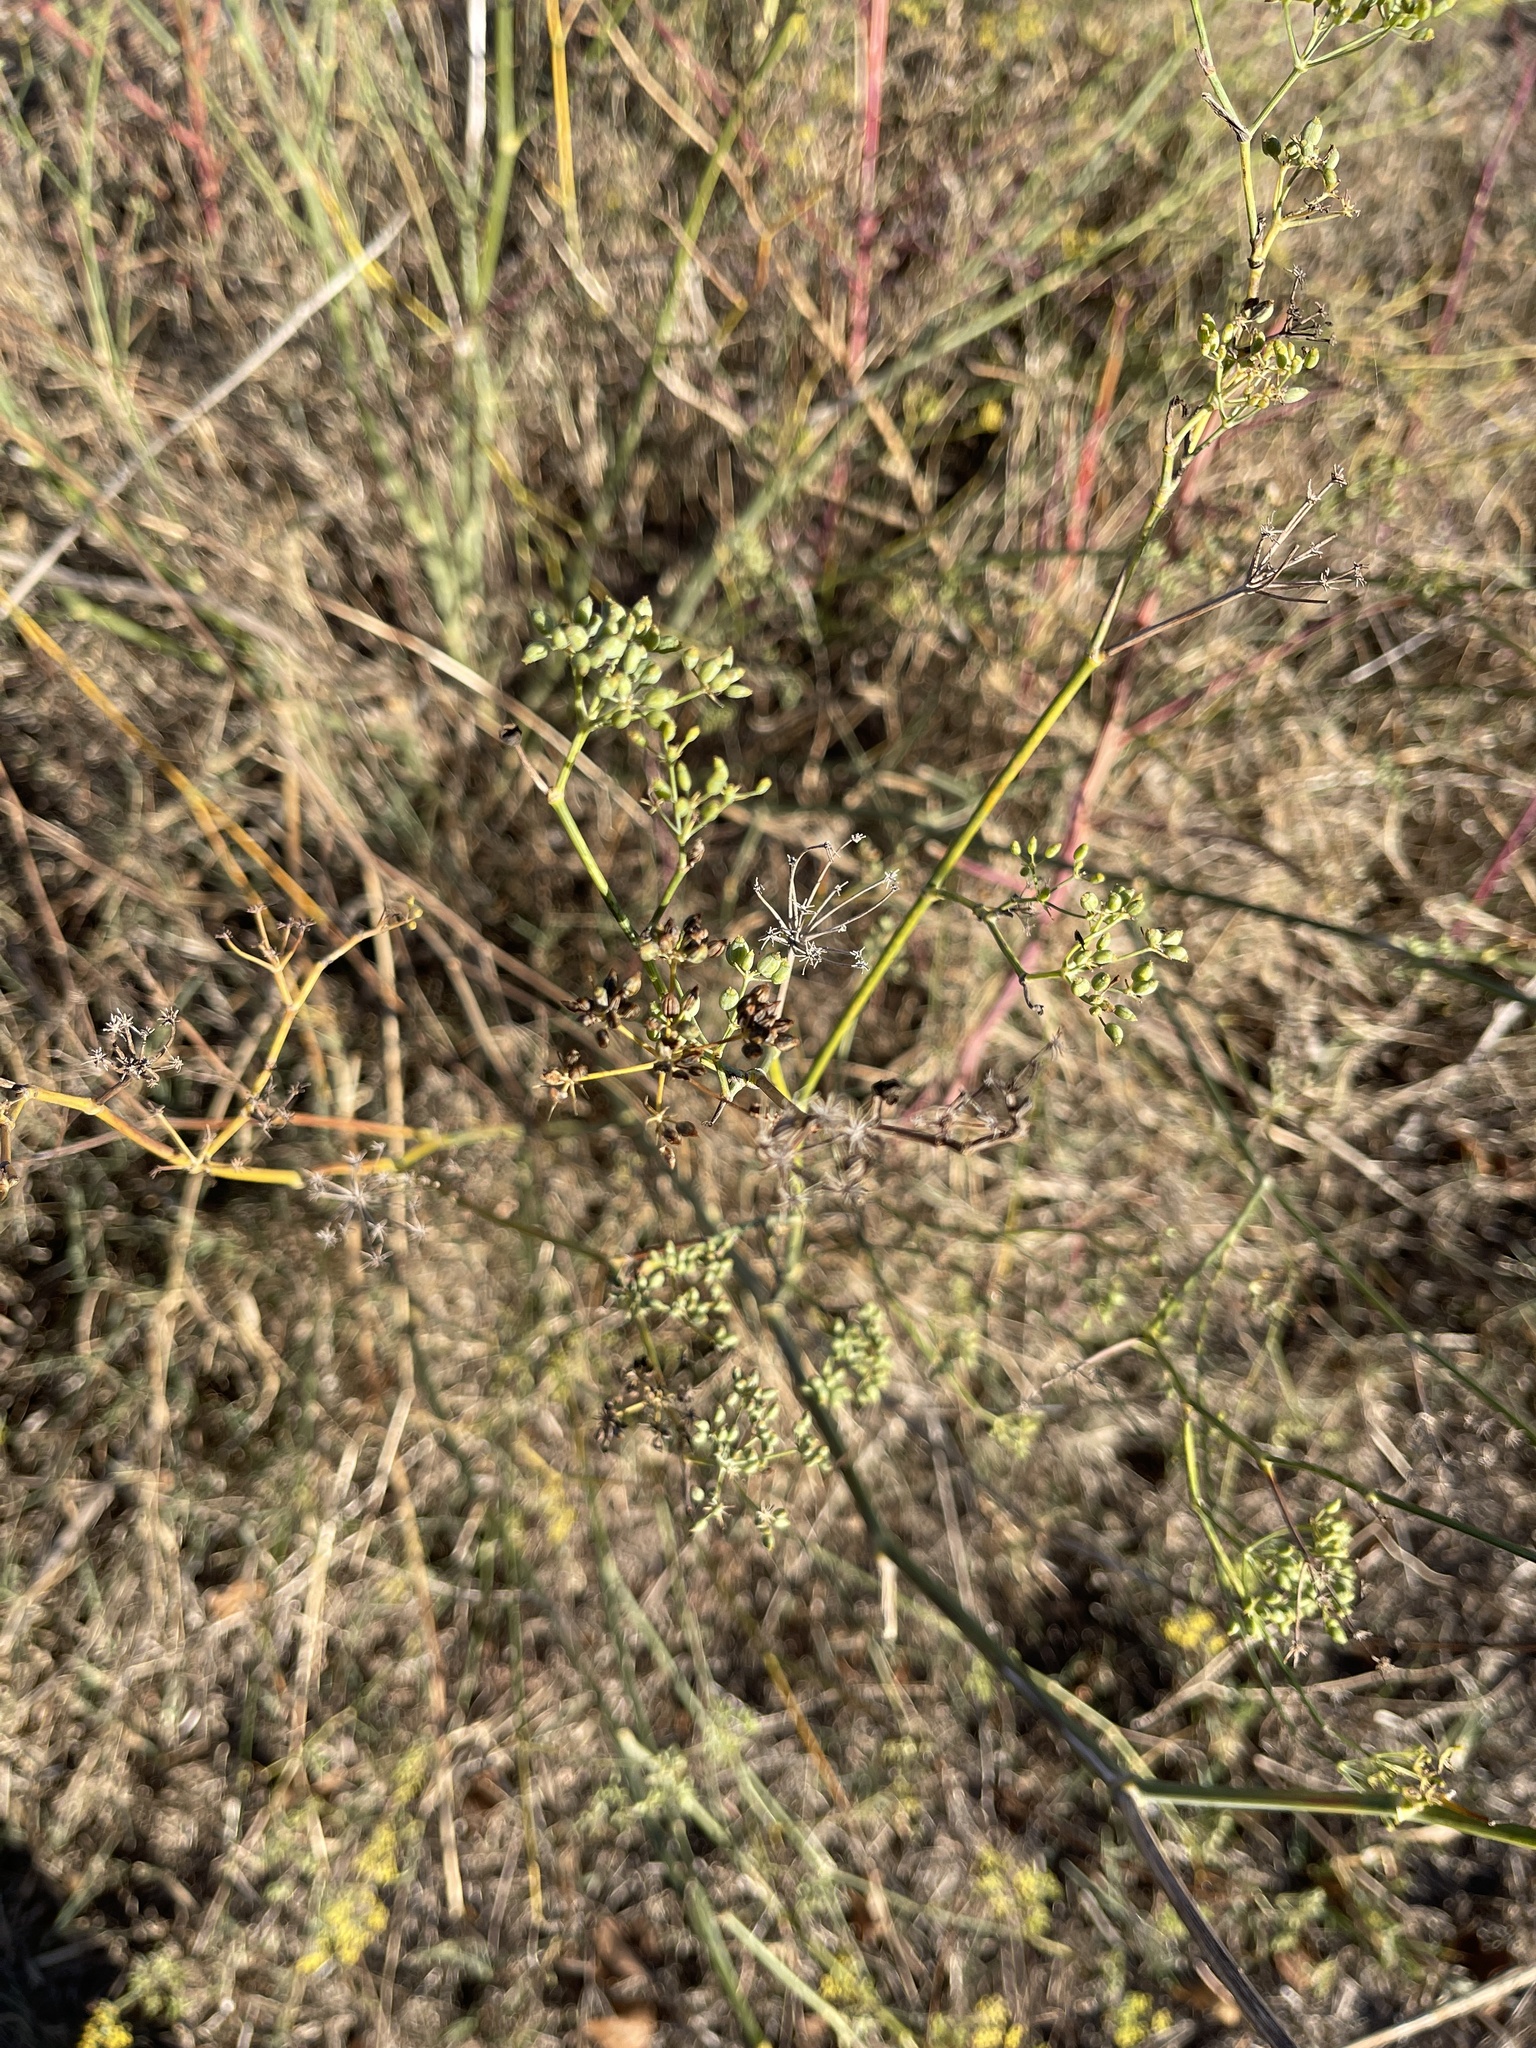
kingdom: Plantae
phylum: Tracheophyta
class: Magnoliopsida
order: Apiales
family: Apiaceae
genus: Foeniculum
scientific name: Foeniculum vulgare
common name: Fennel
